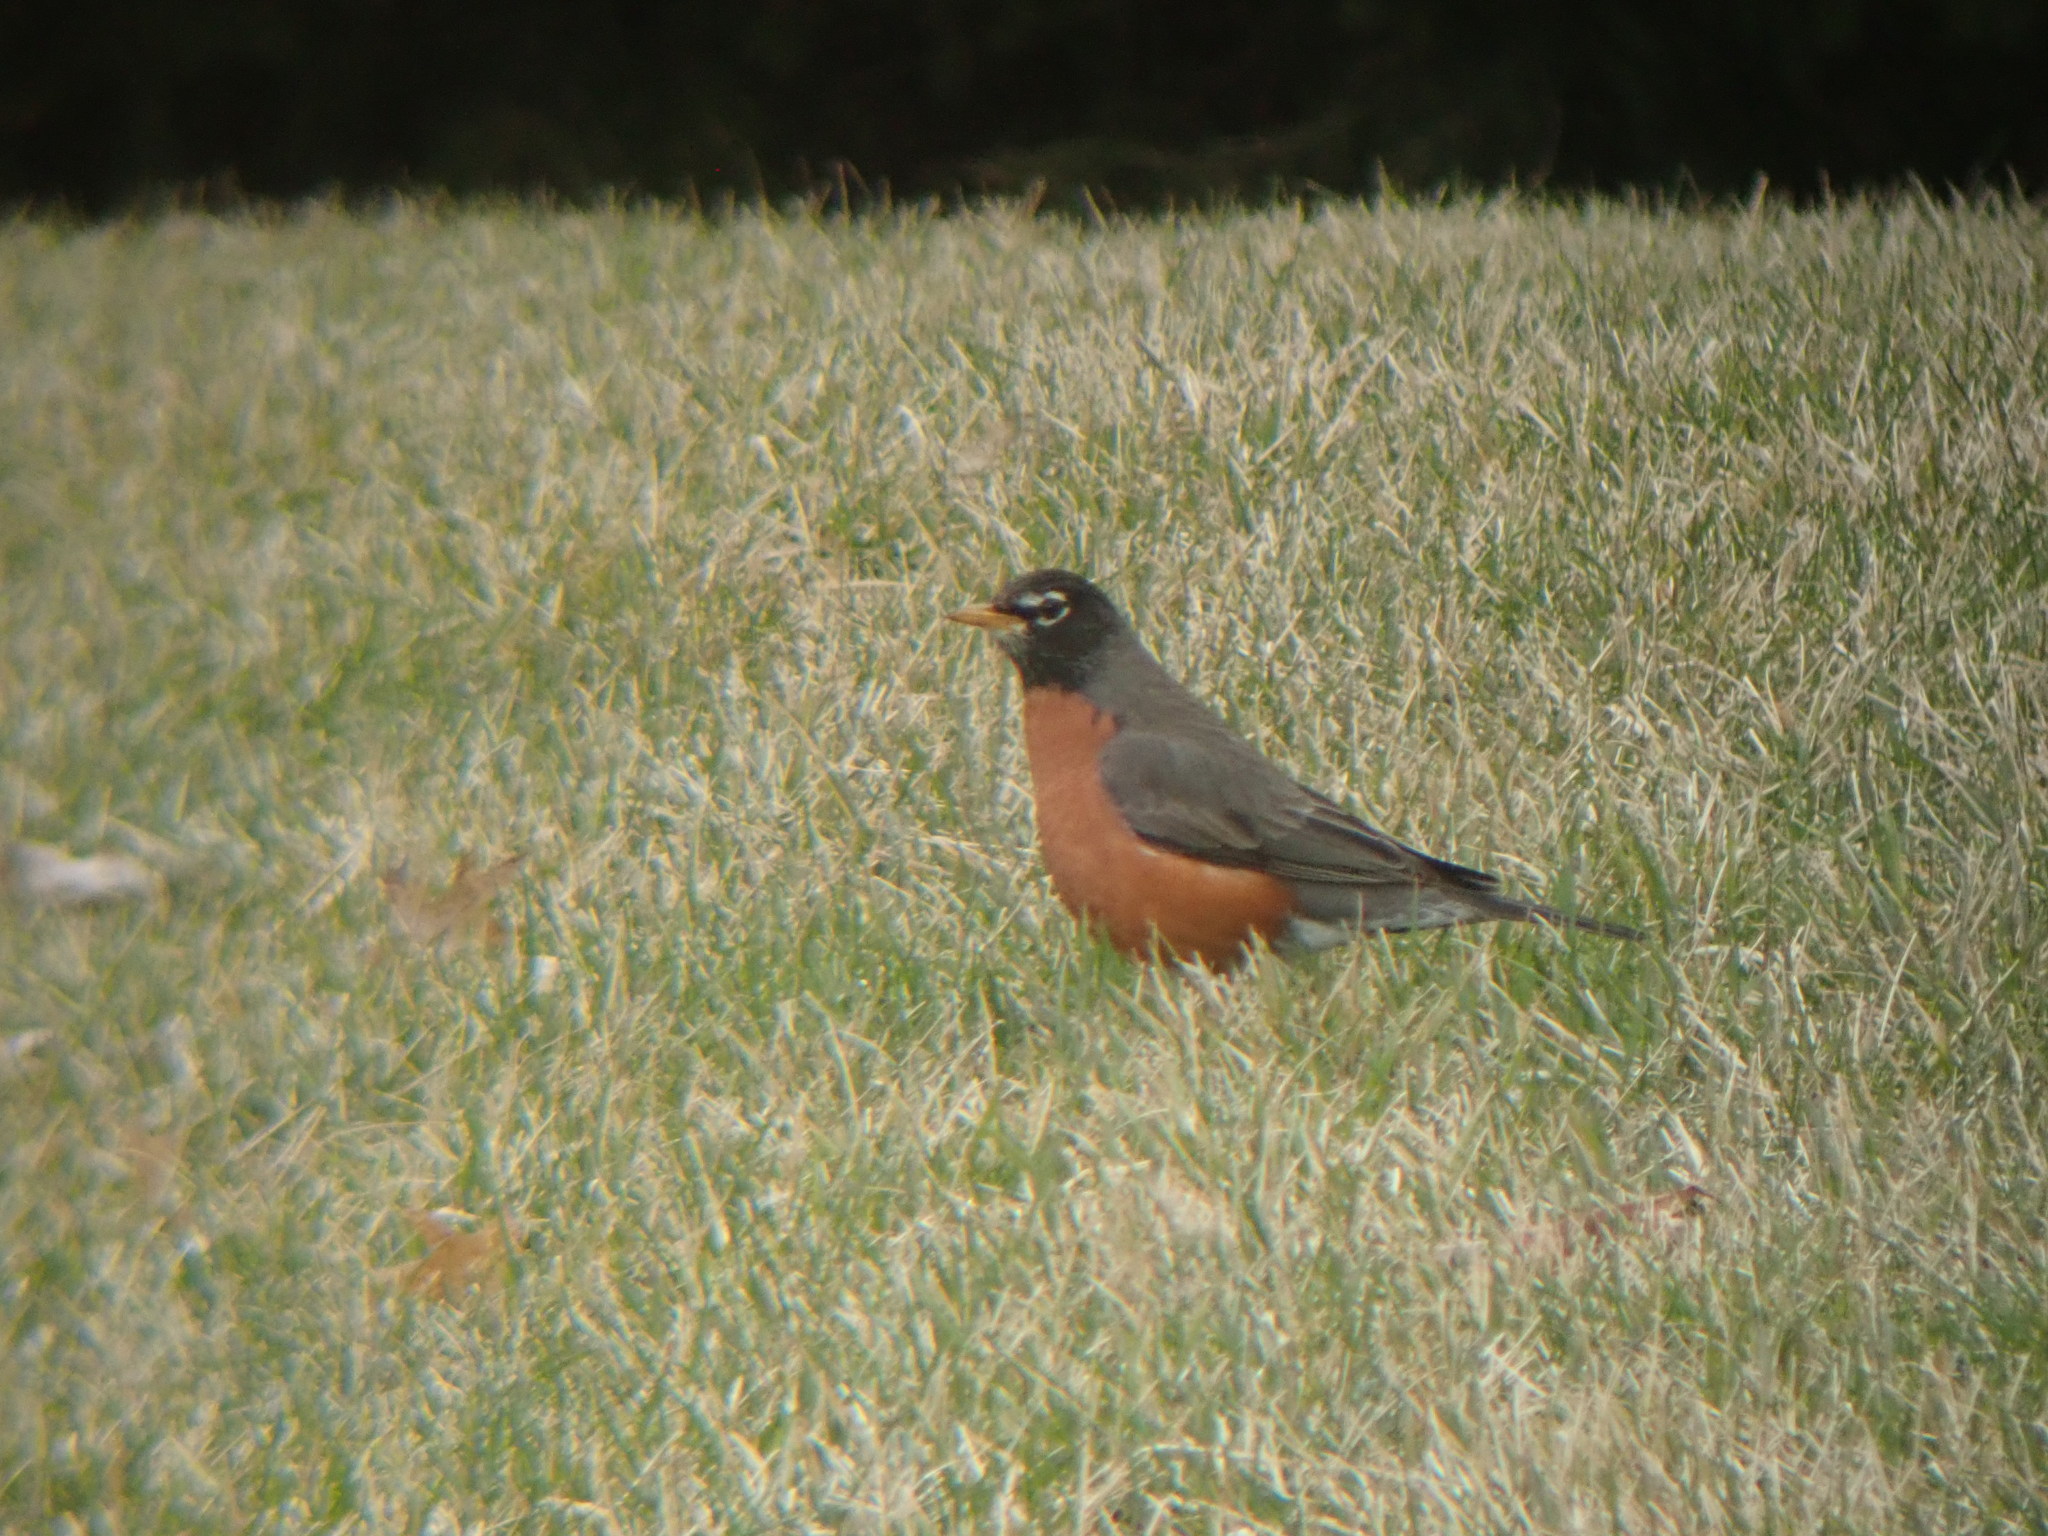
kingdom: Animalia
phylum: Chordata
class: Aves
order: Passeriformes
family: Turdidae
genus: Turdus
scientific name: Turdus migratorius
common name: American robin
